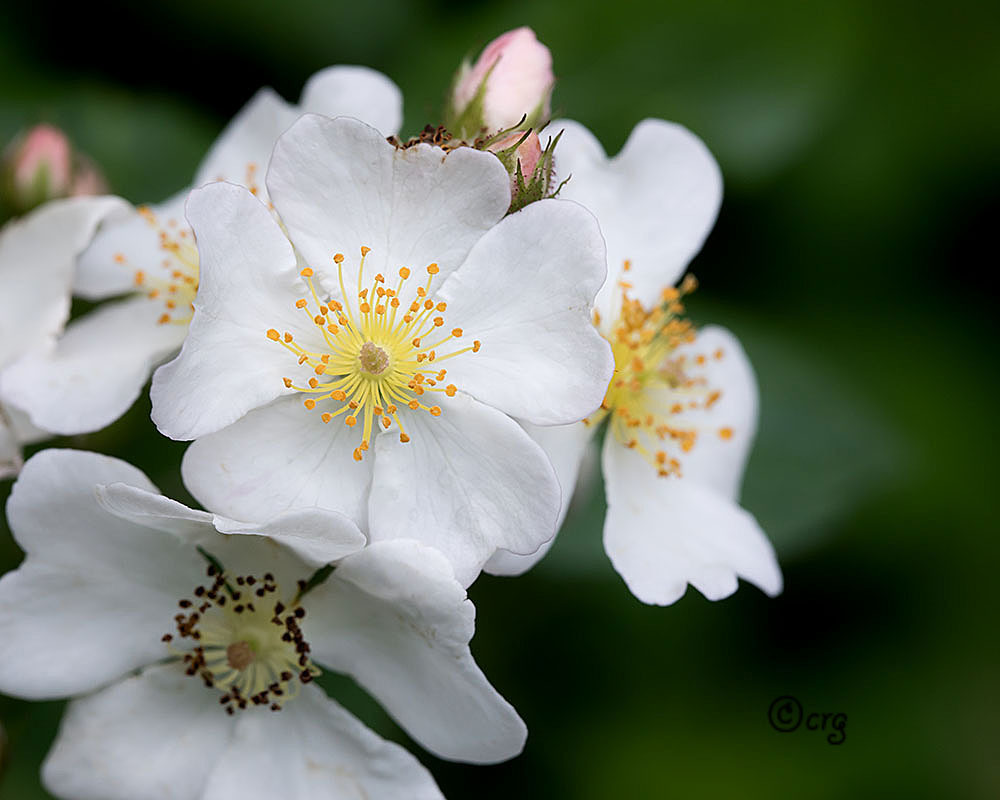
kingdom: Plantae
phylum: Tracheophyta
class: Magnoliopsida
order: Rosales
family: Rosaceae
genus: Rosa
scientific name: Rosa multiflora
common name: Multiflora rose
